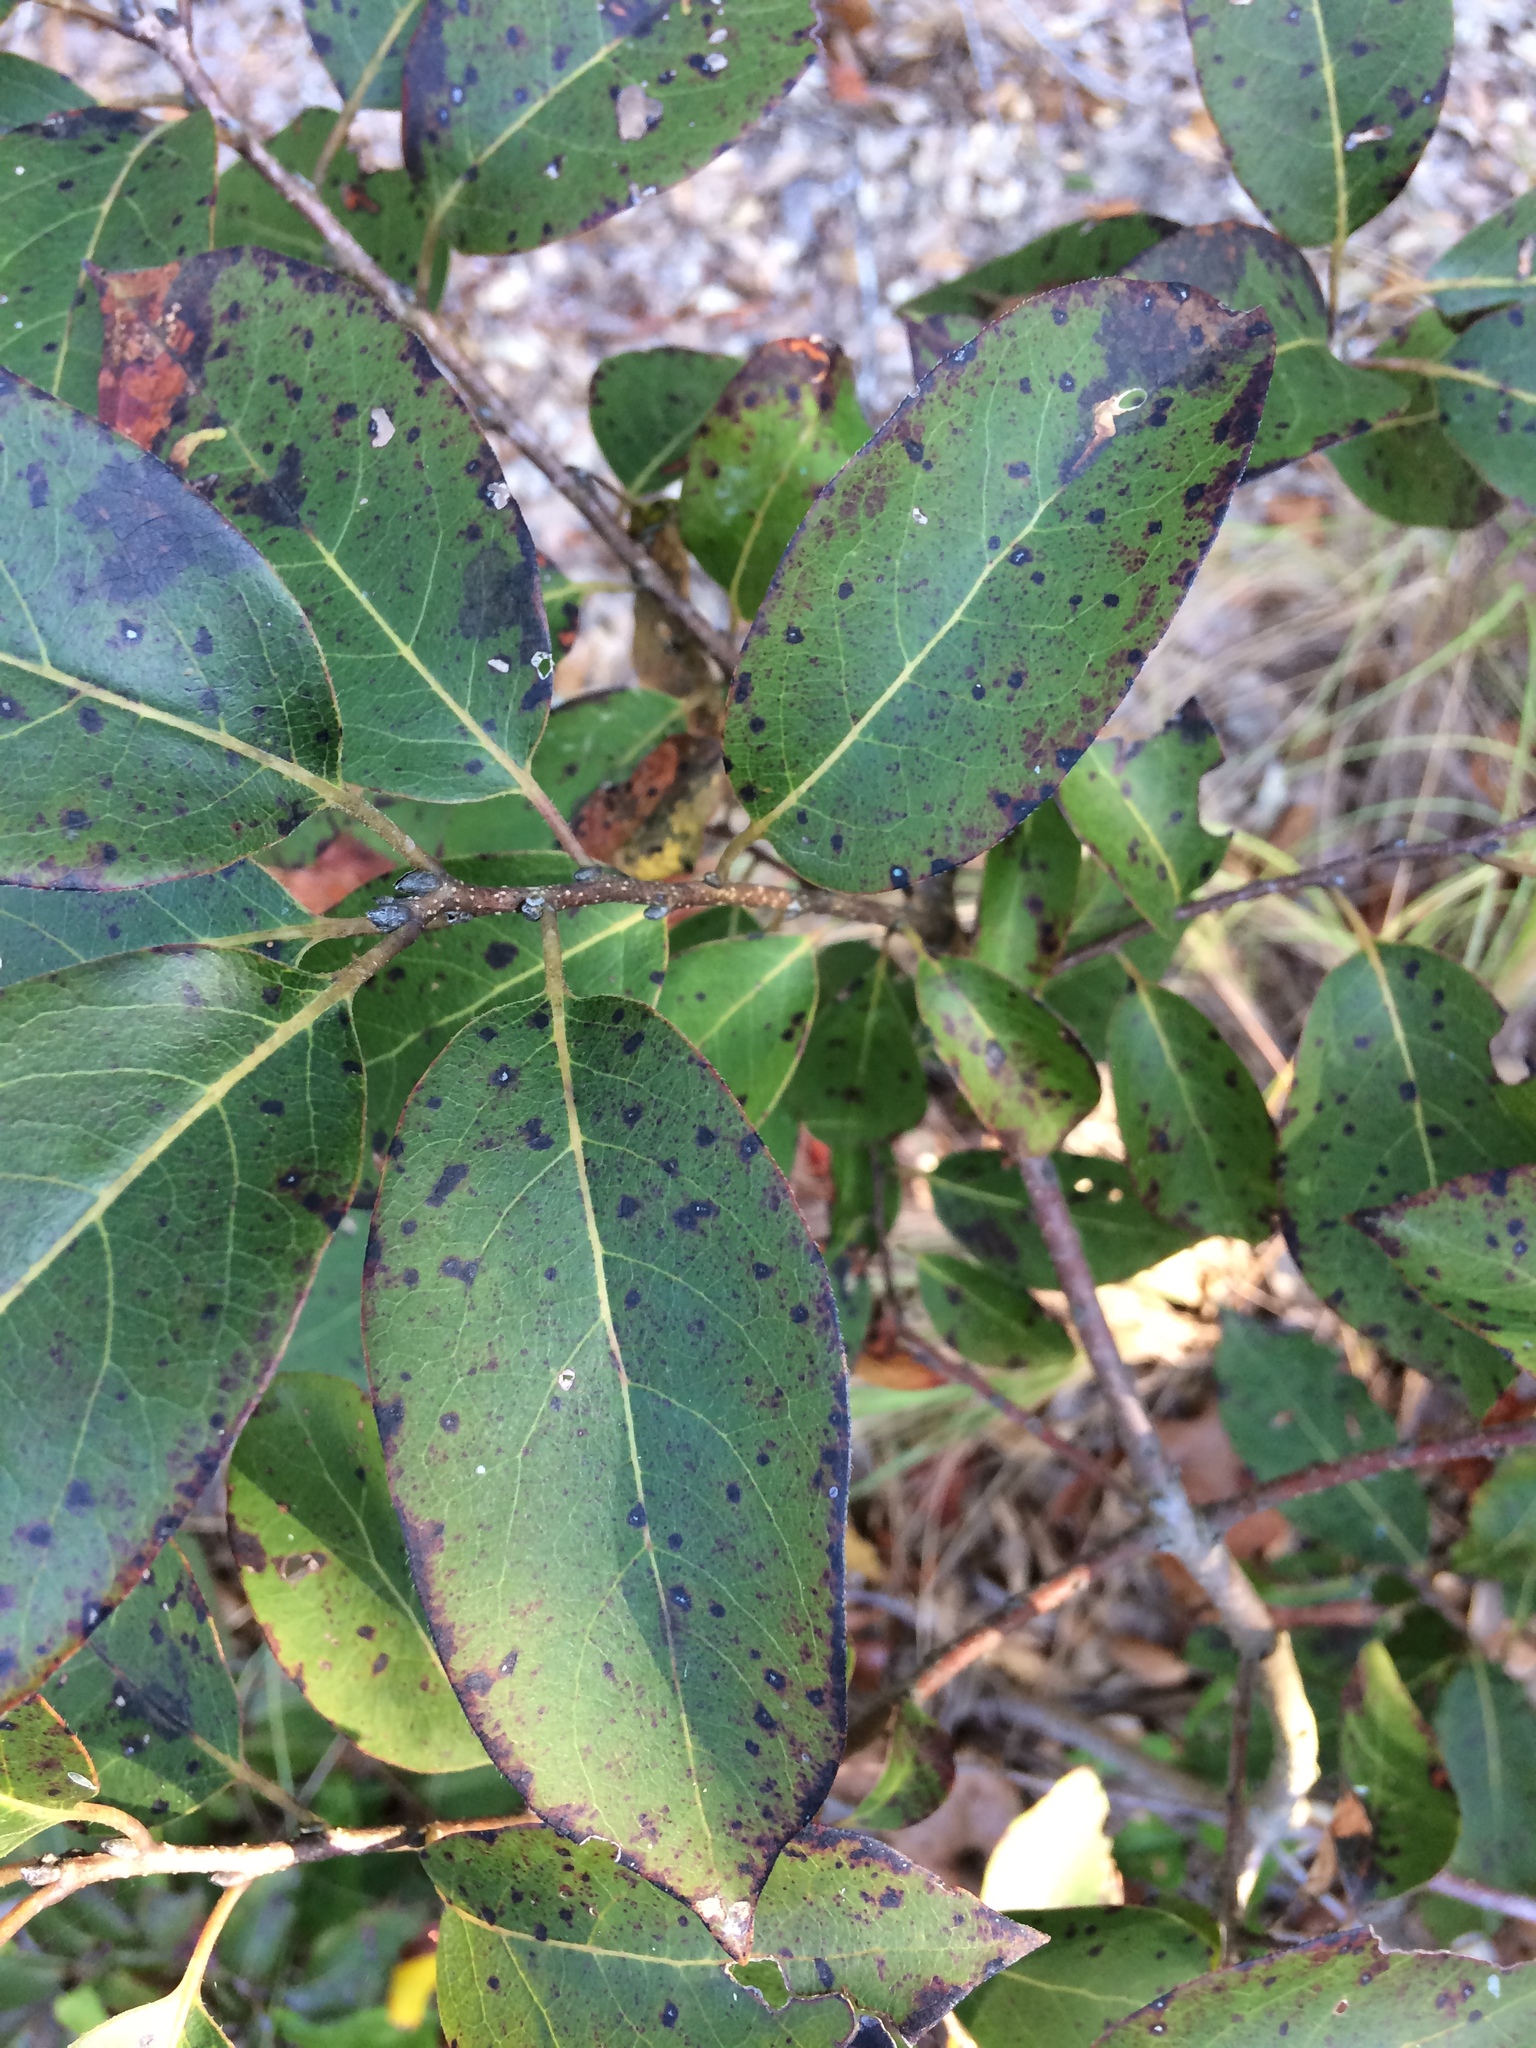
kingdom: Plantae
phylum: Tracheophyta
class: Magnoliopsida
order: Ericales
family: Ebenaceae
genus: Diospyros
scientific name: Diospyros virginiana
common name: Persimmon
